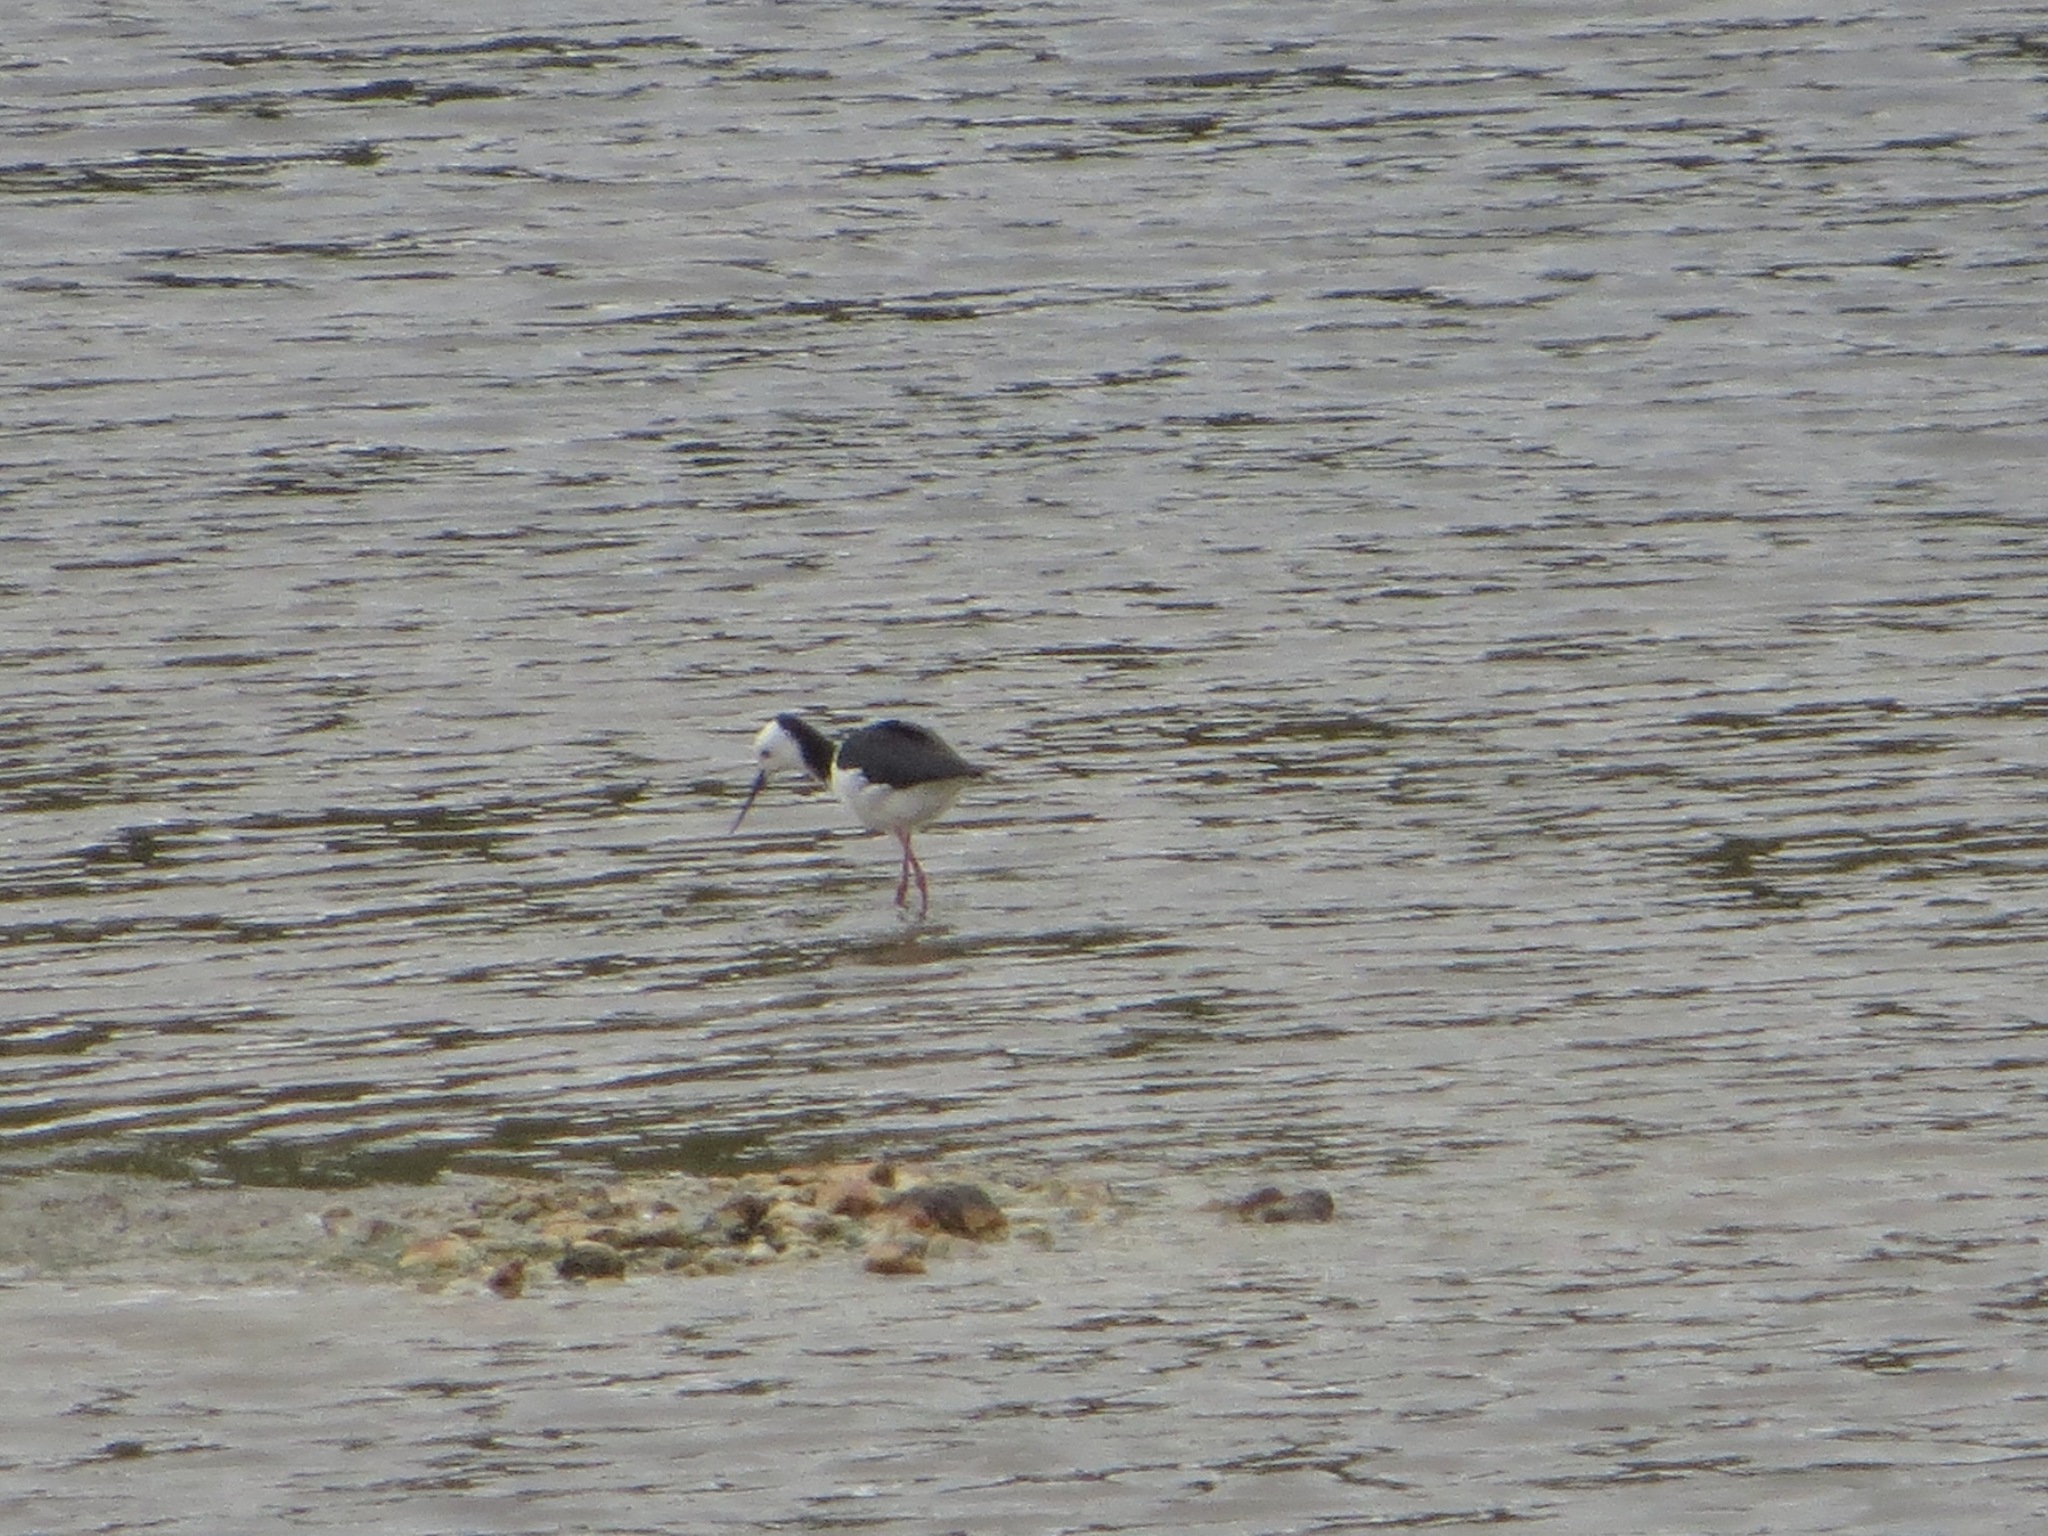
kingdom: Animalia
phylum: Chordata
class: Aves
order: Charadriiformes
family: Recurvirostridae
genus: Himantopus
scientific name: Himantopus leucocephalus
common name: White-headed stilt
